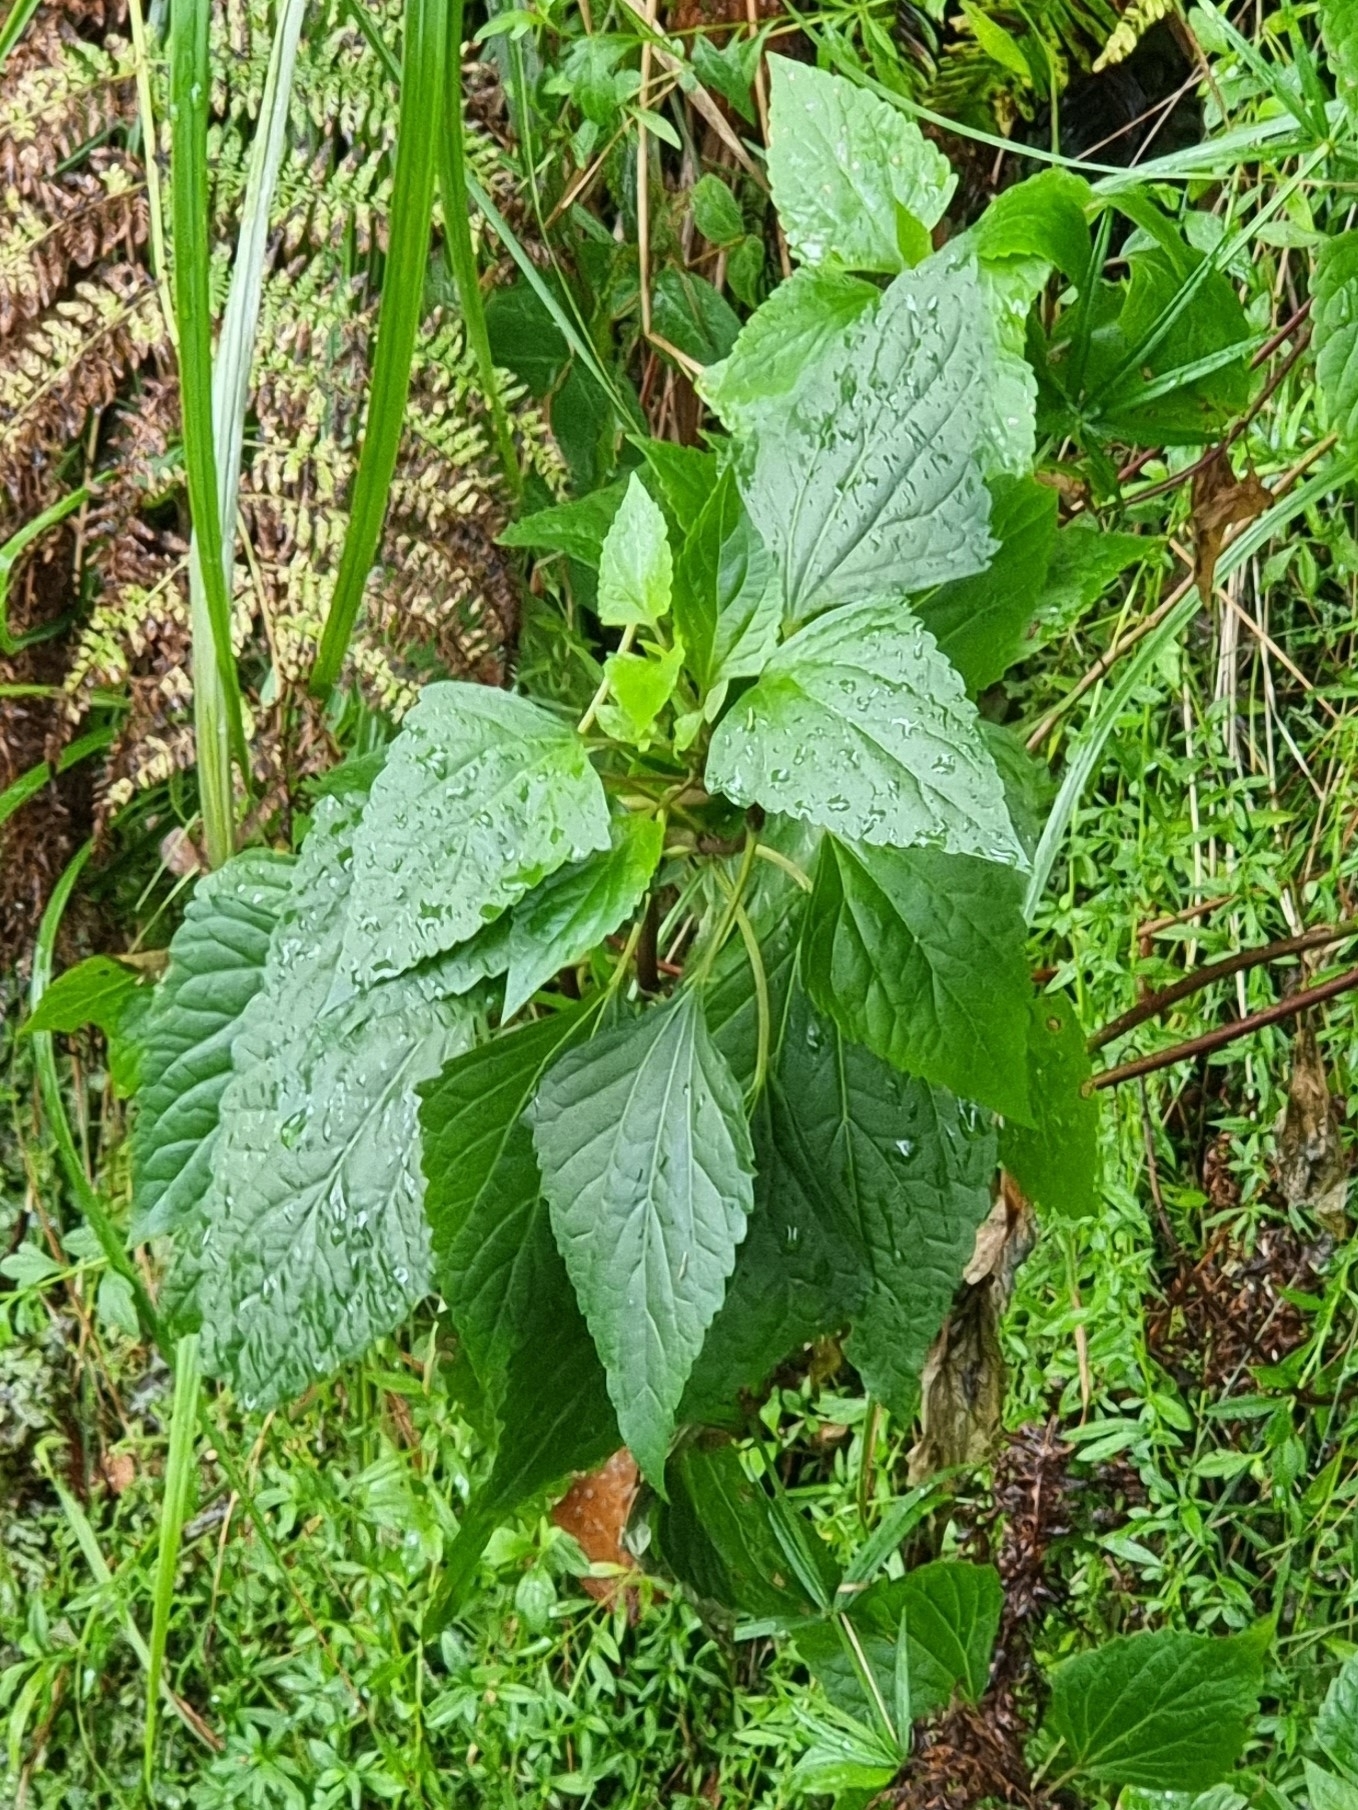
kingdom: Plantae
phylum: Tracheophyta
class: Magnoliopsida
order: Asterales
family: Asteraceae
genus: Ageratina
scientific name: Ageratina adenophora
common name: Sticky snakeroot
